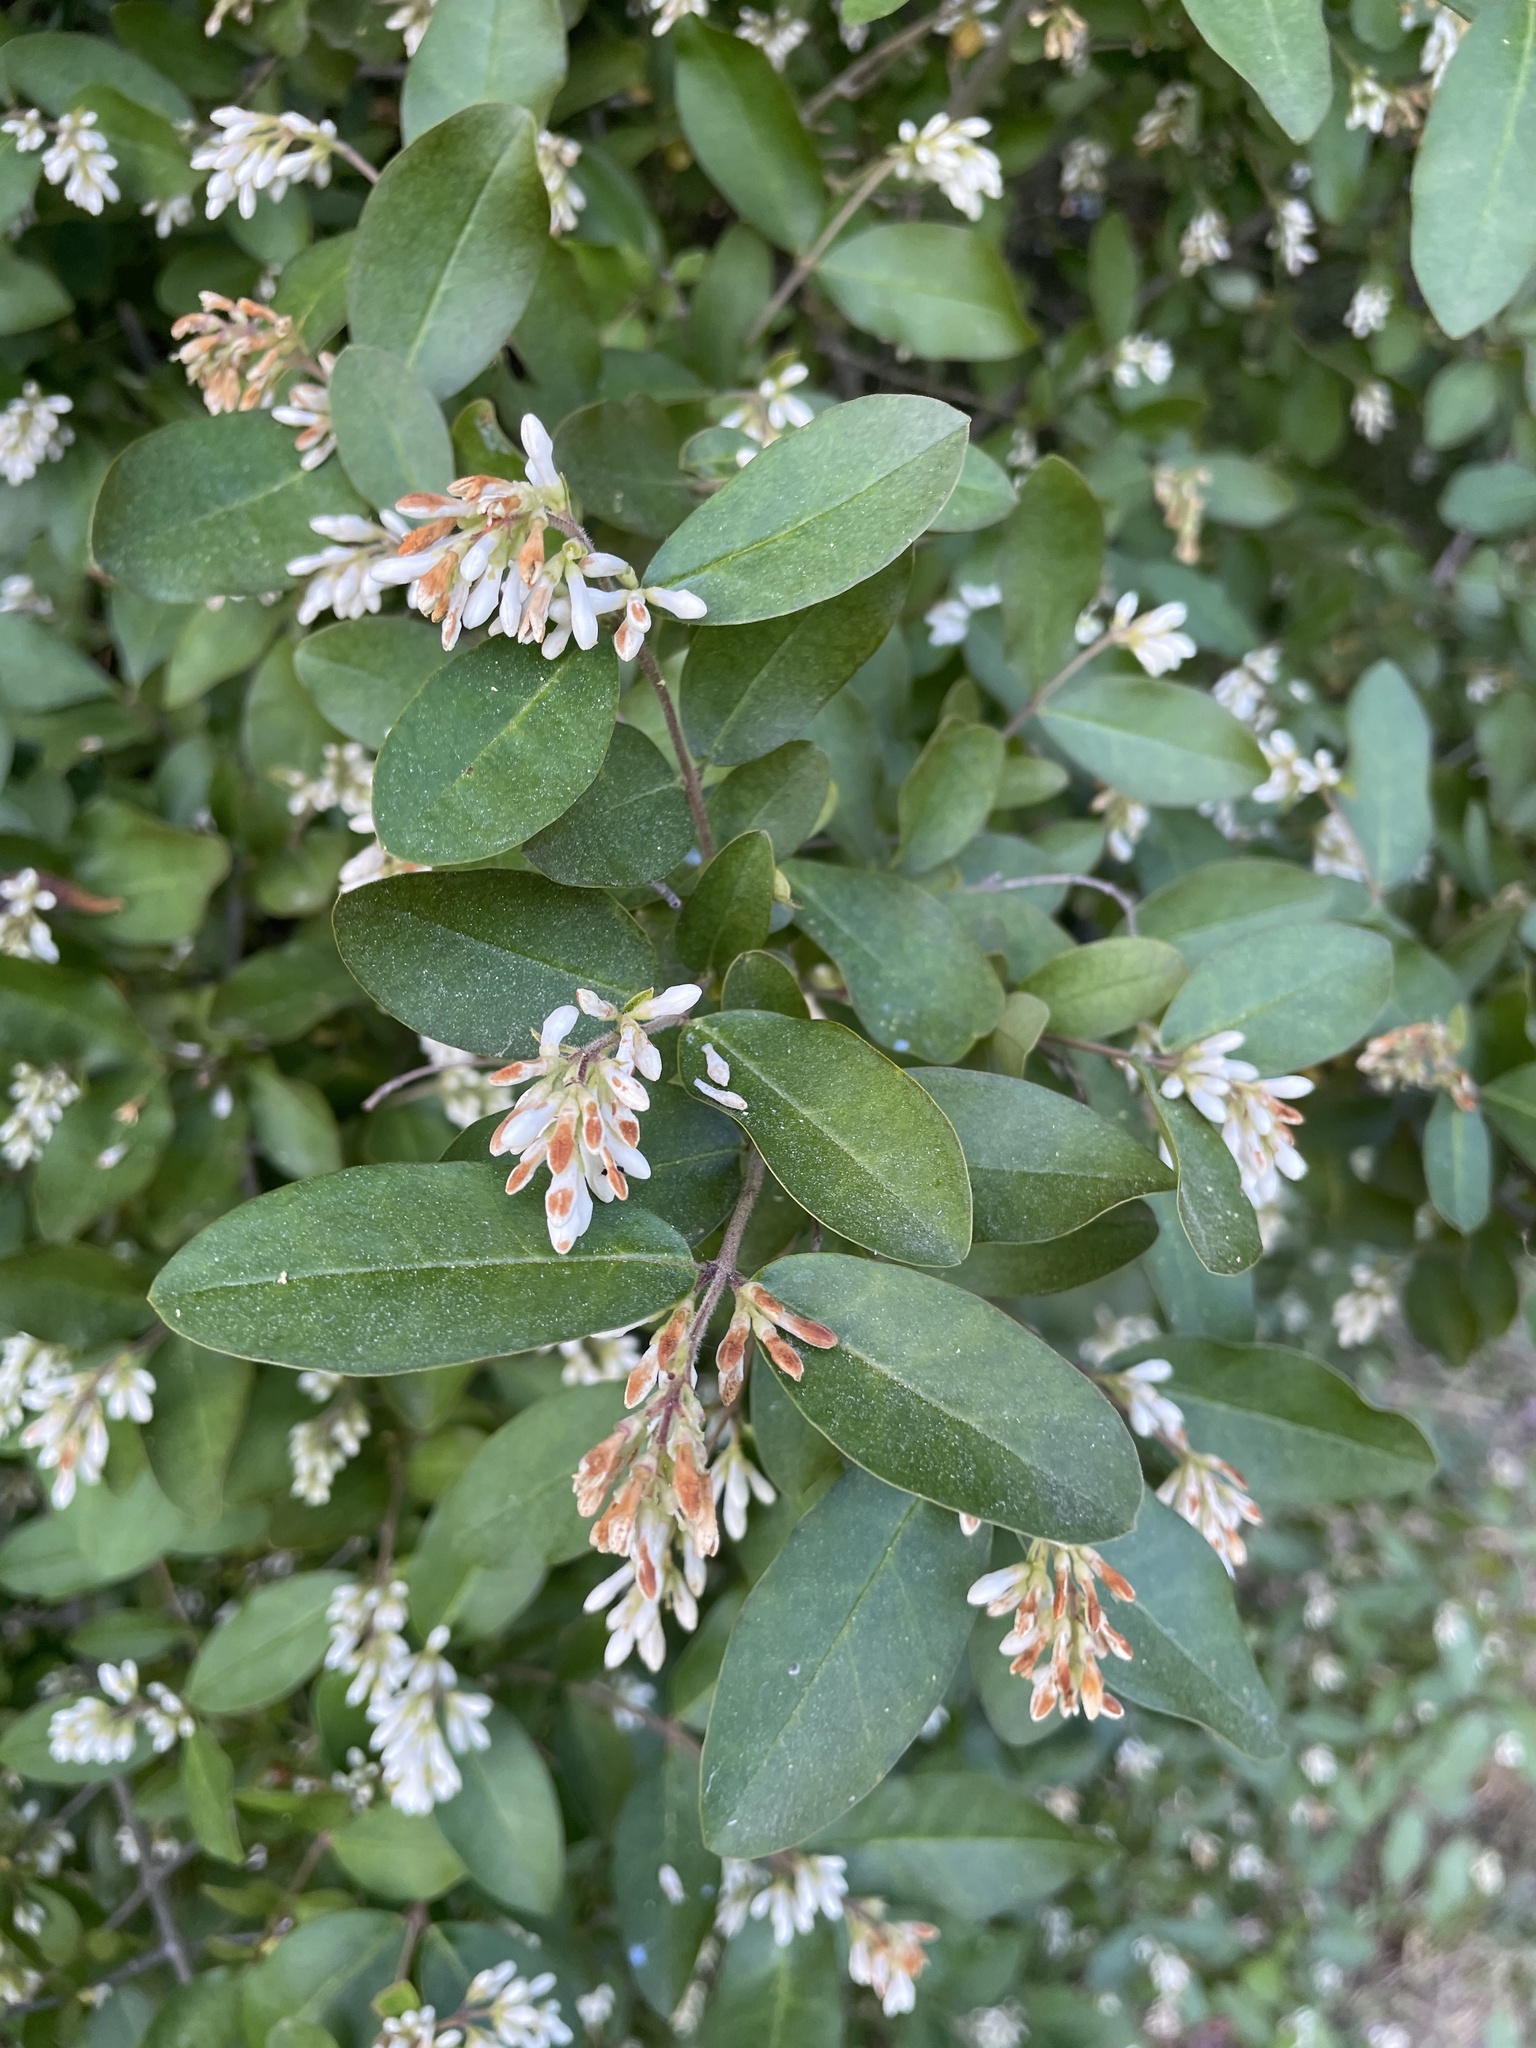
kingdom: Plantae
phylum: Tracheophyta
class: Magnoliopsida
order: Lamiales
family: Oleaceae
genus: Ligustrum
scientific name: Ligustrum obtusifolium
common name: Border privet
